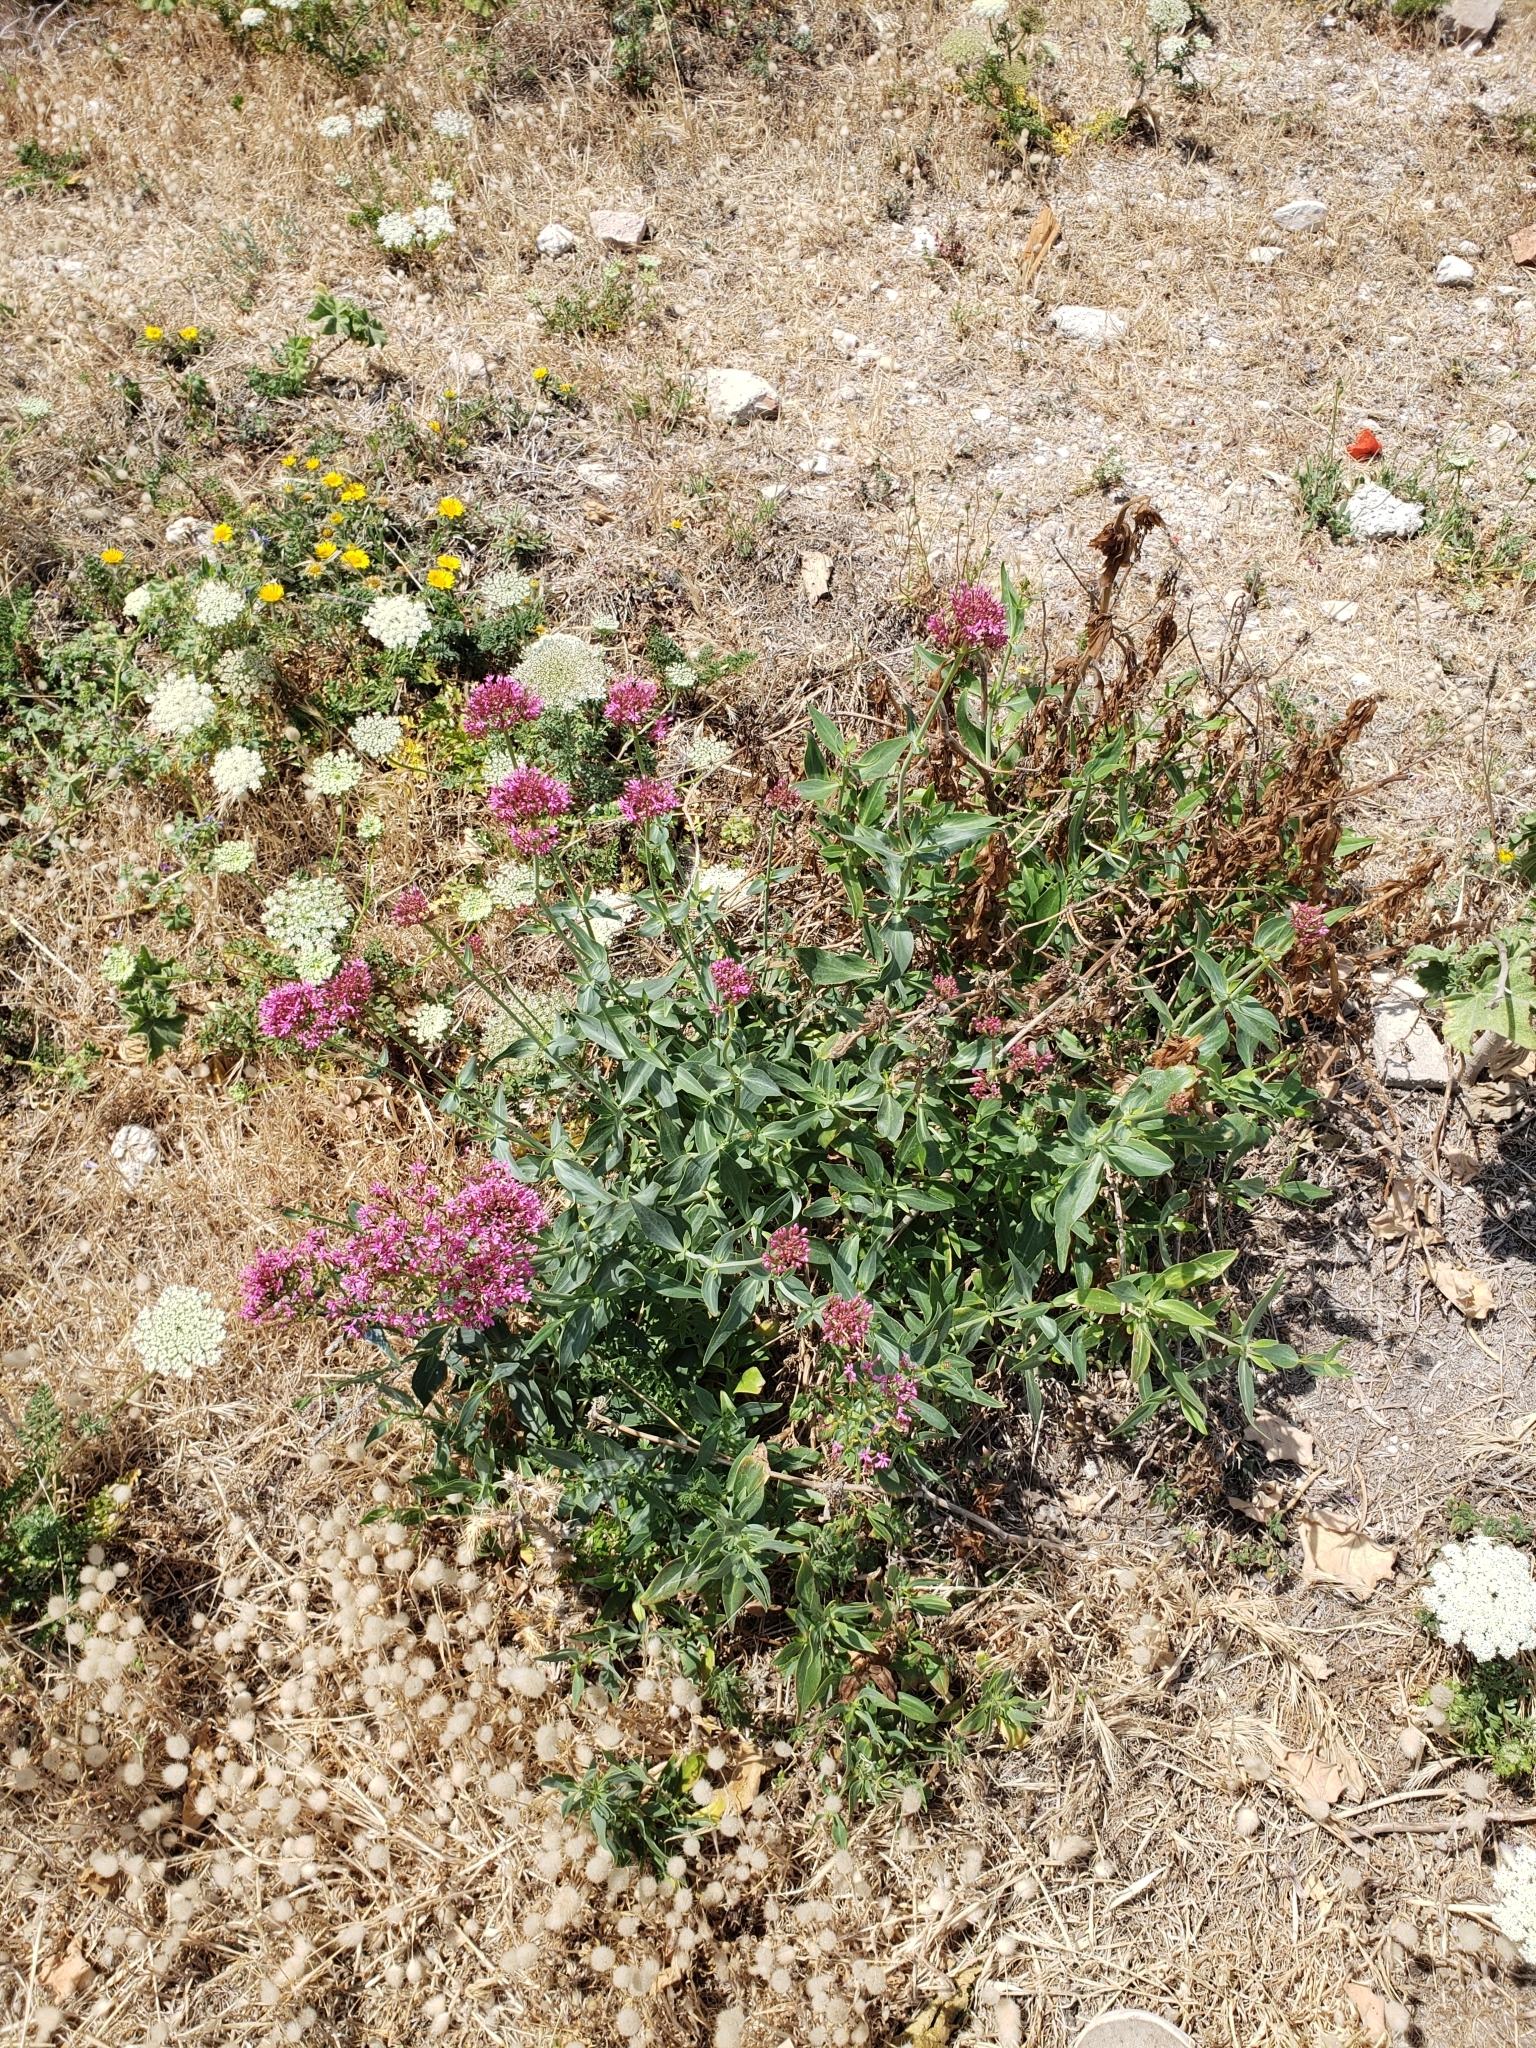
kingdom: Plantae
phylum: Tracheophyta
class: Magnoliopsida
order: Dipsacales
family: Caprifoliaceae
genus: Centranthus
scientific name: Centranthus ruber
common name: Red valerian
